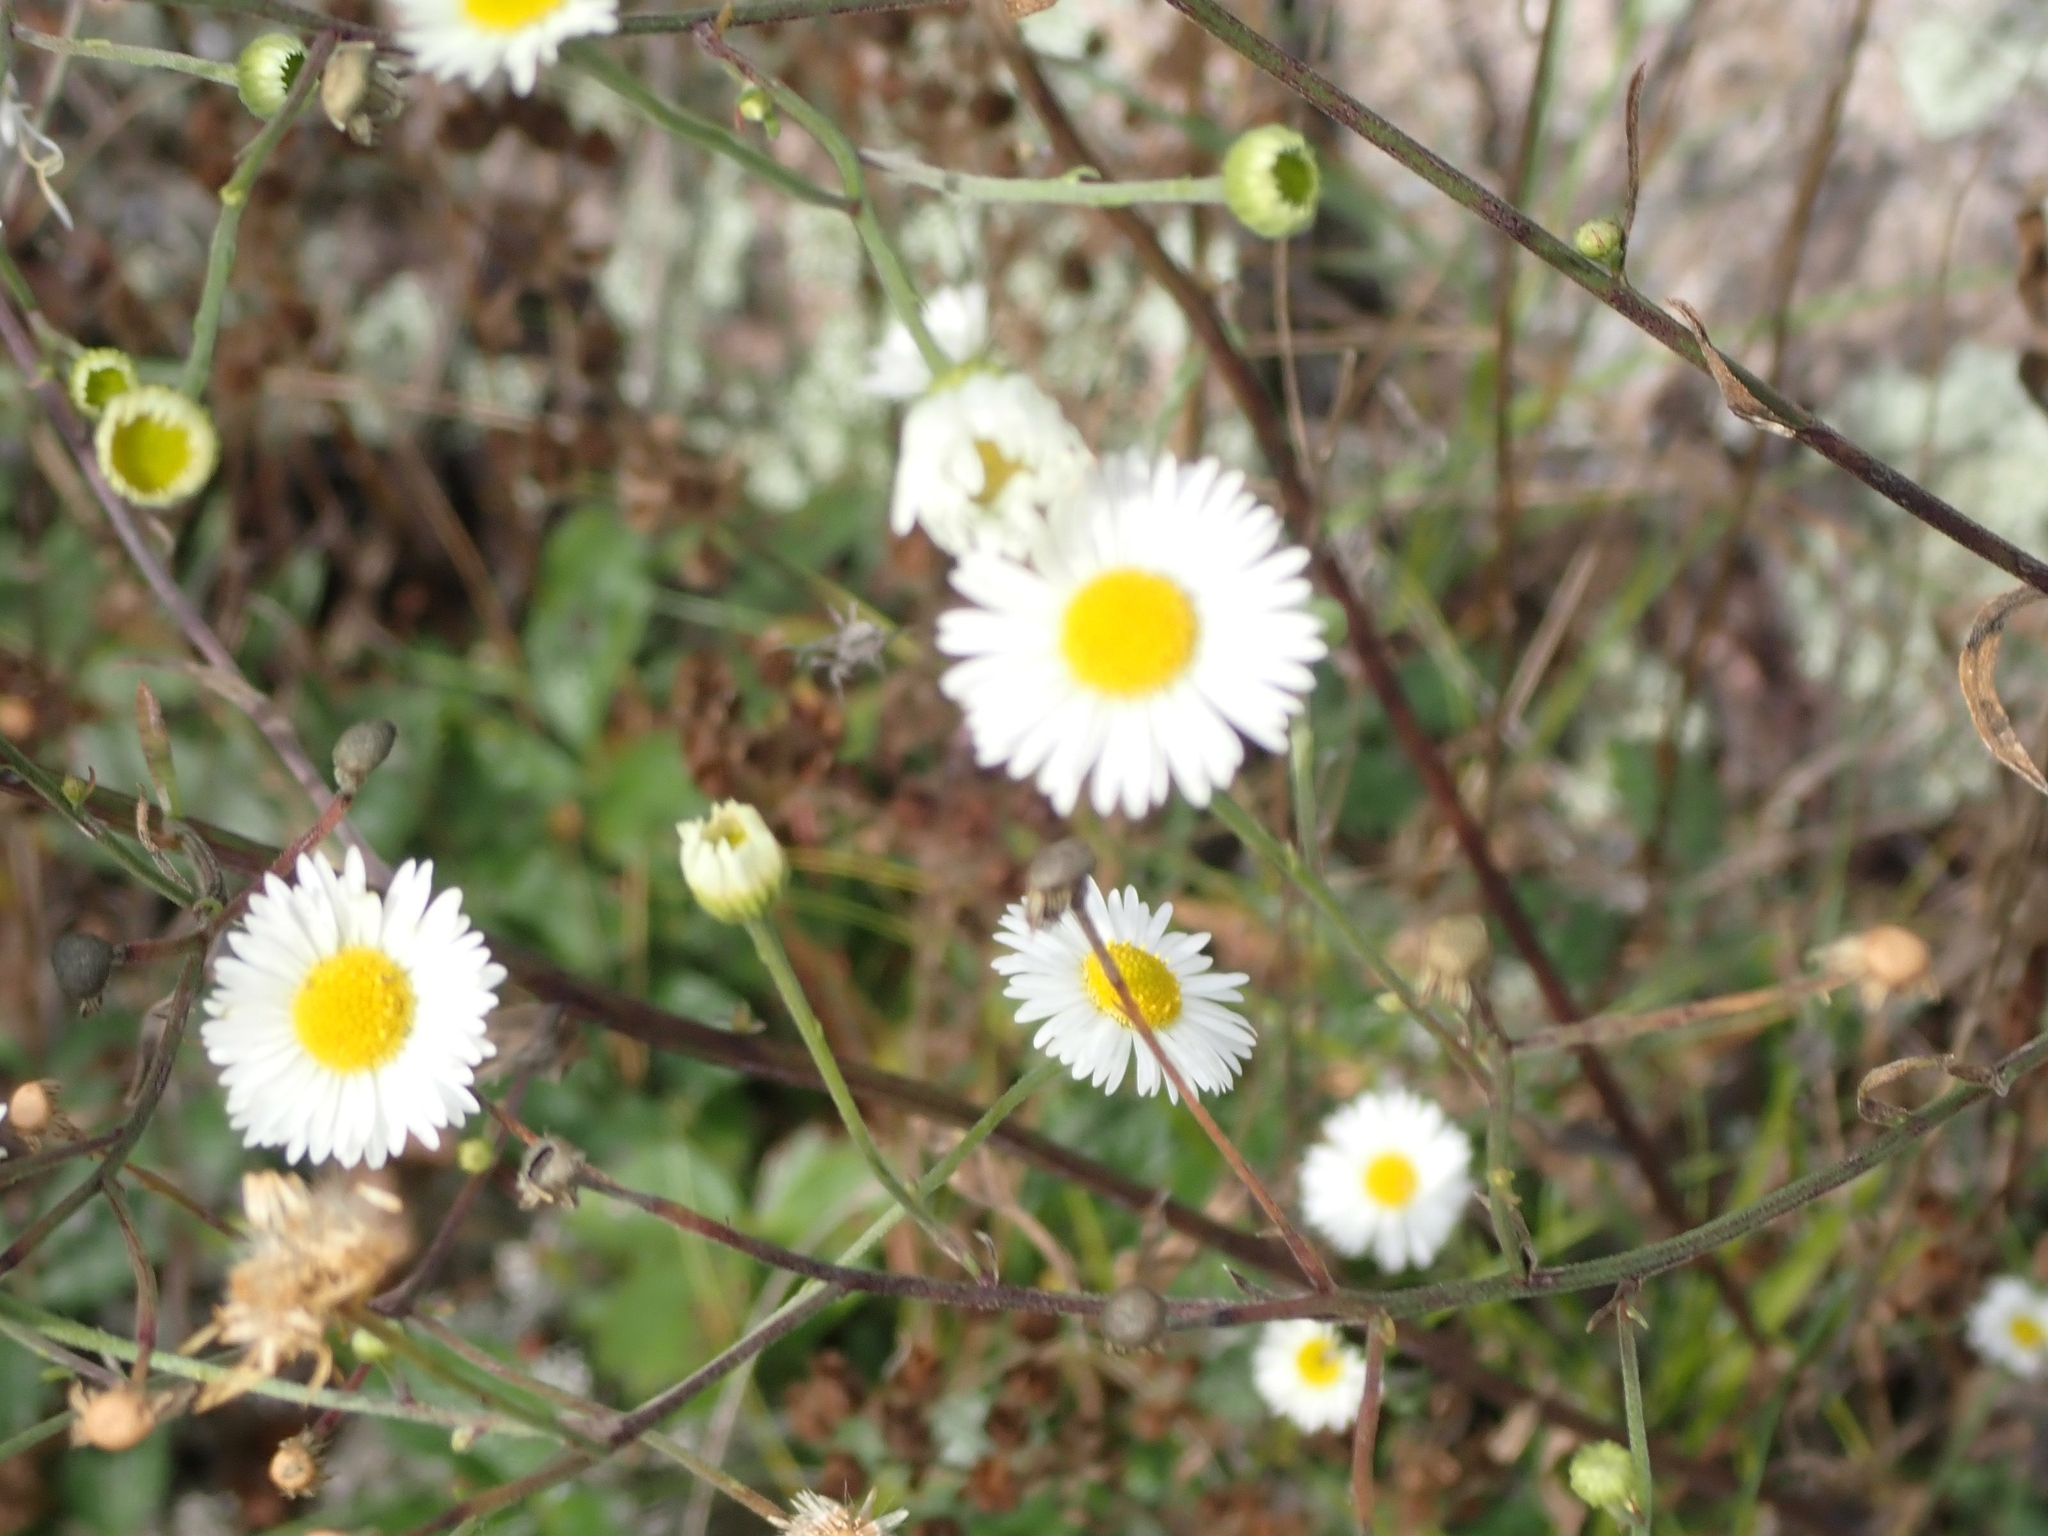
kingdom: Plantae
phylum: Tracheophyta
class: Magnoliopsida
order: Asterales
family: Asteraceae
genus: Erigeron
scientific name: Erigeron strigosus
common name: Common eastern fleabane
